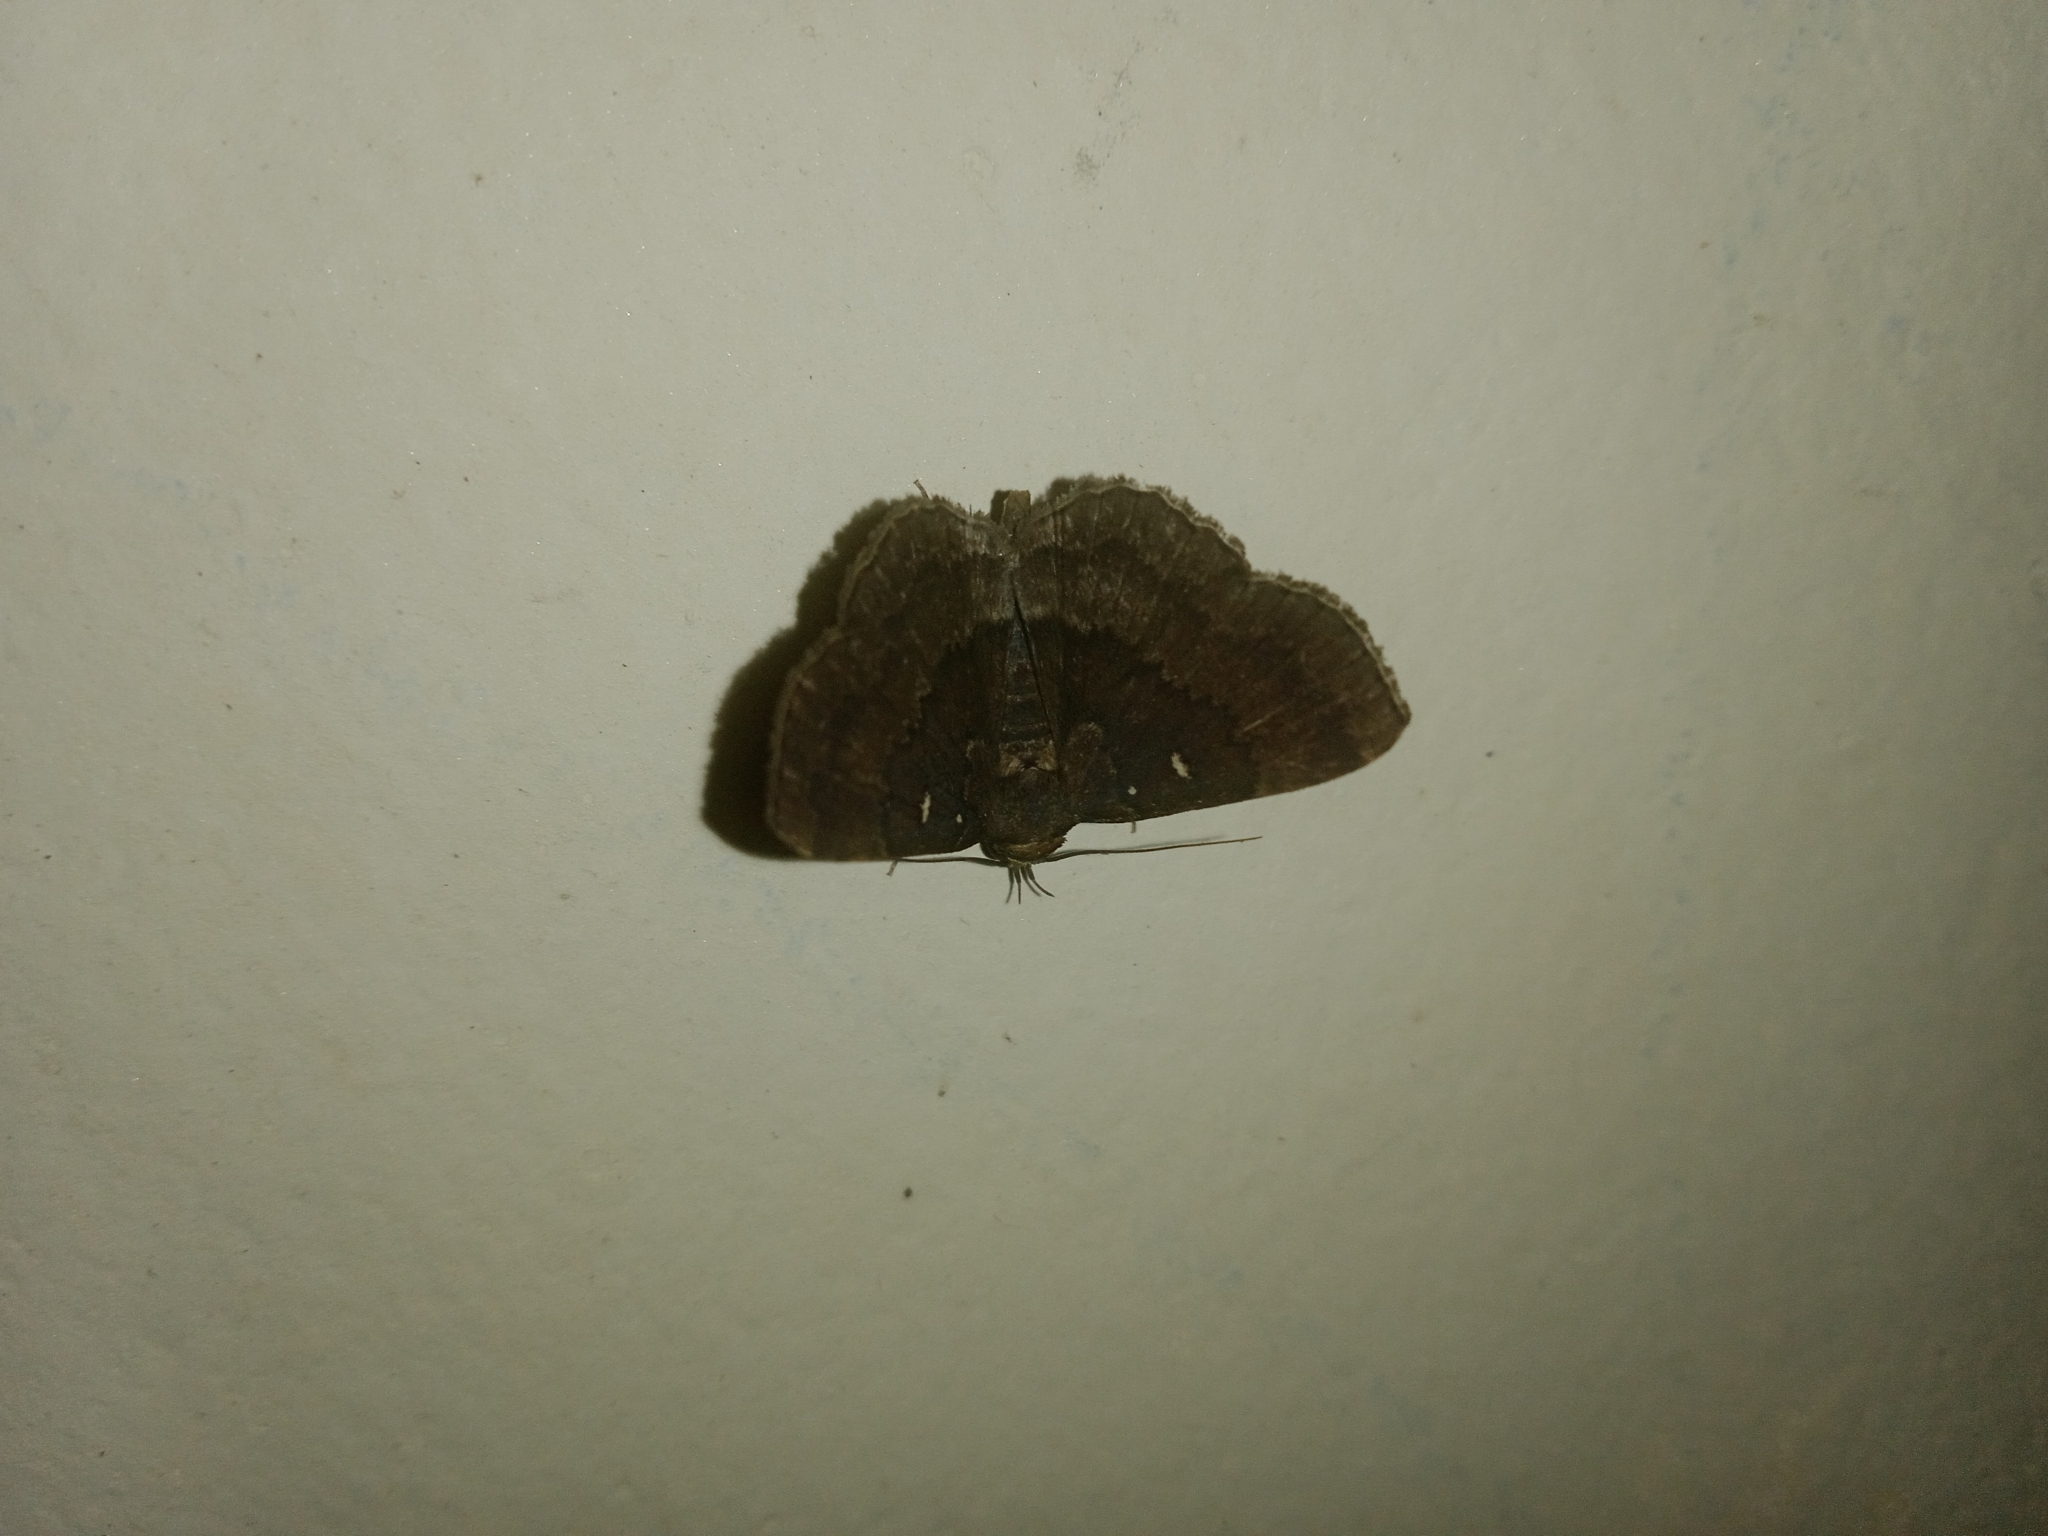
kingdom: Animalia
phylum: Arthropoda
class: Insecta
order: Lepidoptera
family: Erebidae
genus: Bocana
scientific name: Bocana manifestalis
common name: Moth
